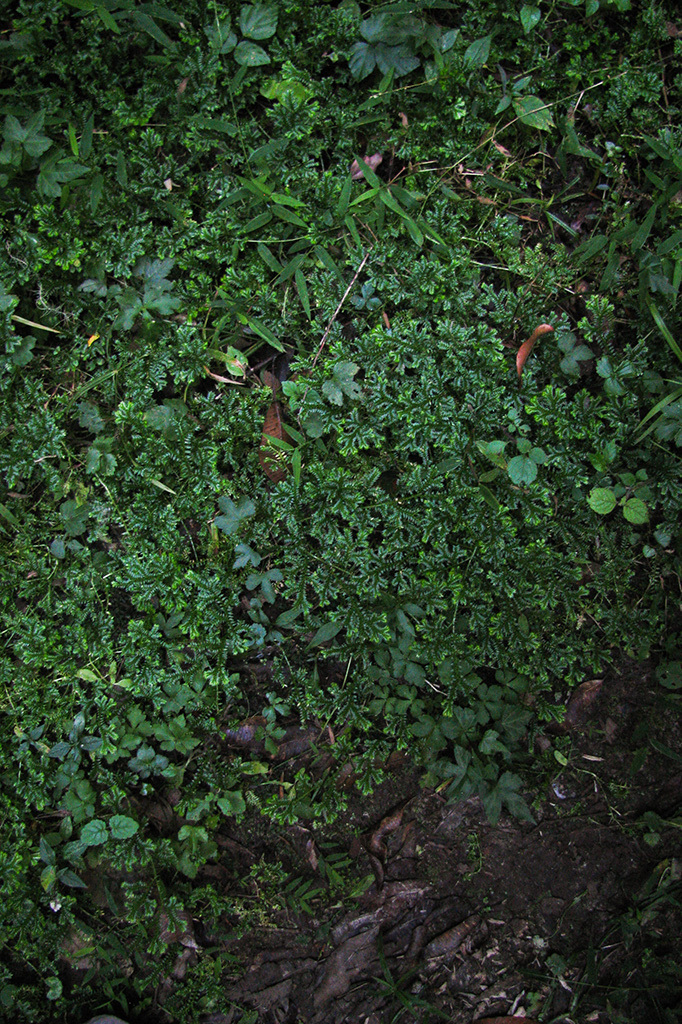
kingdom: Plantae
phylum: Tracheophyta
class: Lycopodiopsida
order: Selaginellales
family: Selaginellaceae
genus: Selaginella
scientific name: Selaginella kraussiana
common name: Krauss' spikemoss
